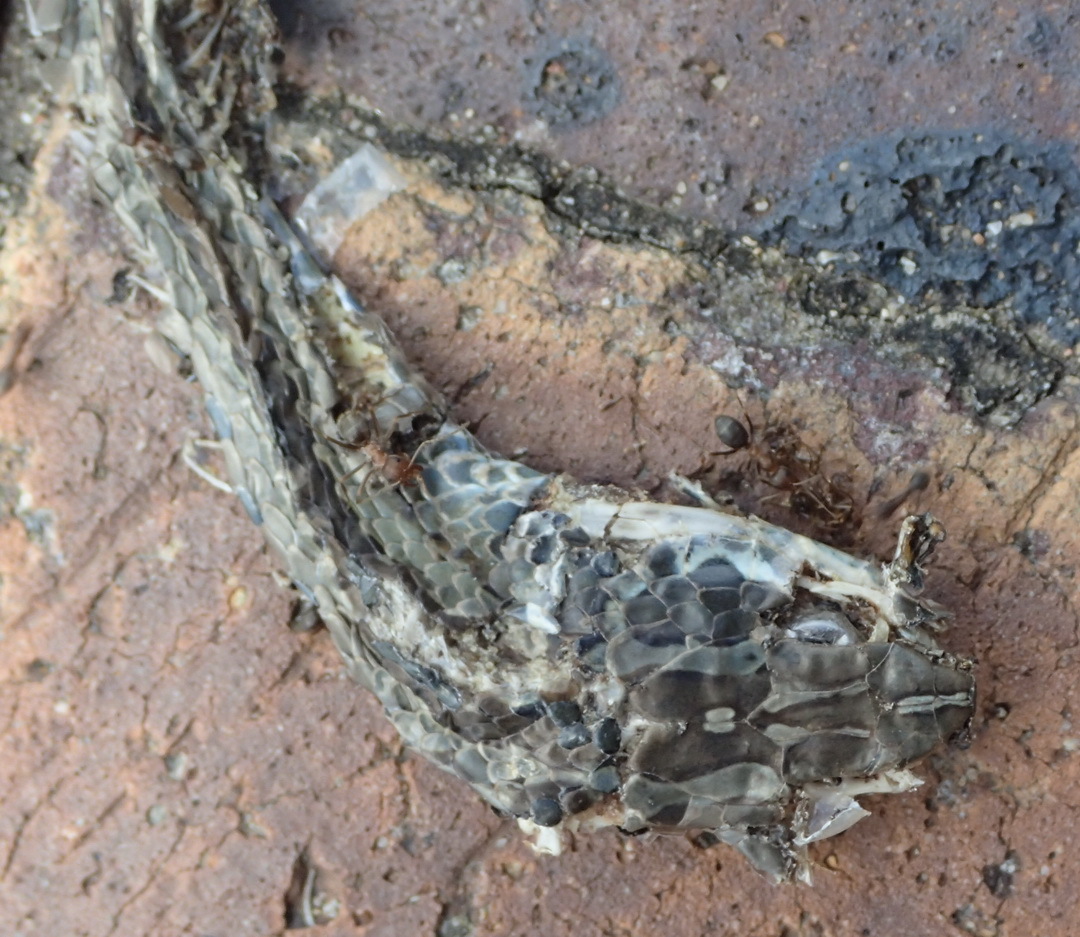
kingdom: Animalia
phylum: Chordata
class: Squamata
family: Psammophiidae
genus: Psammophis
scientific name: Psammophis crucifer
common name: Cross-marked grass snake
